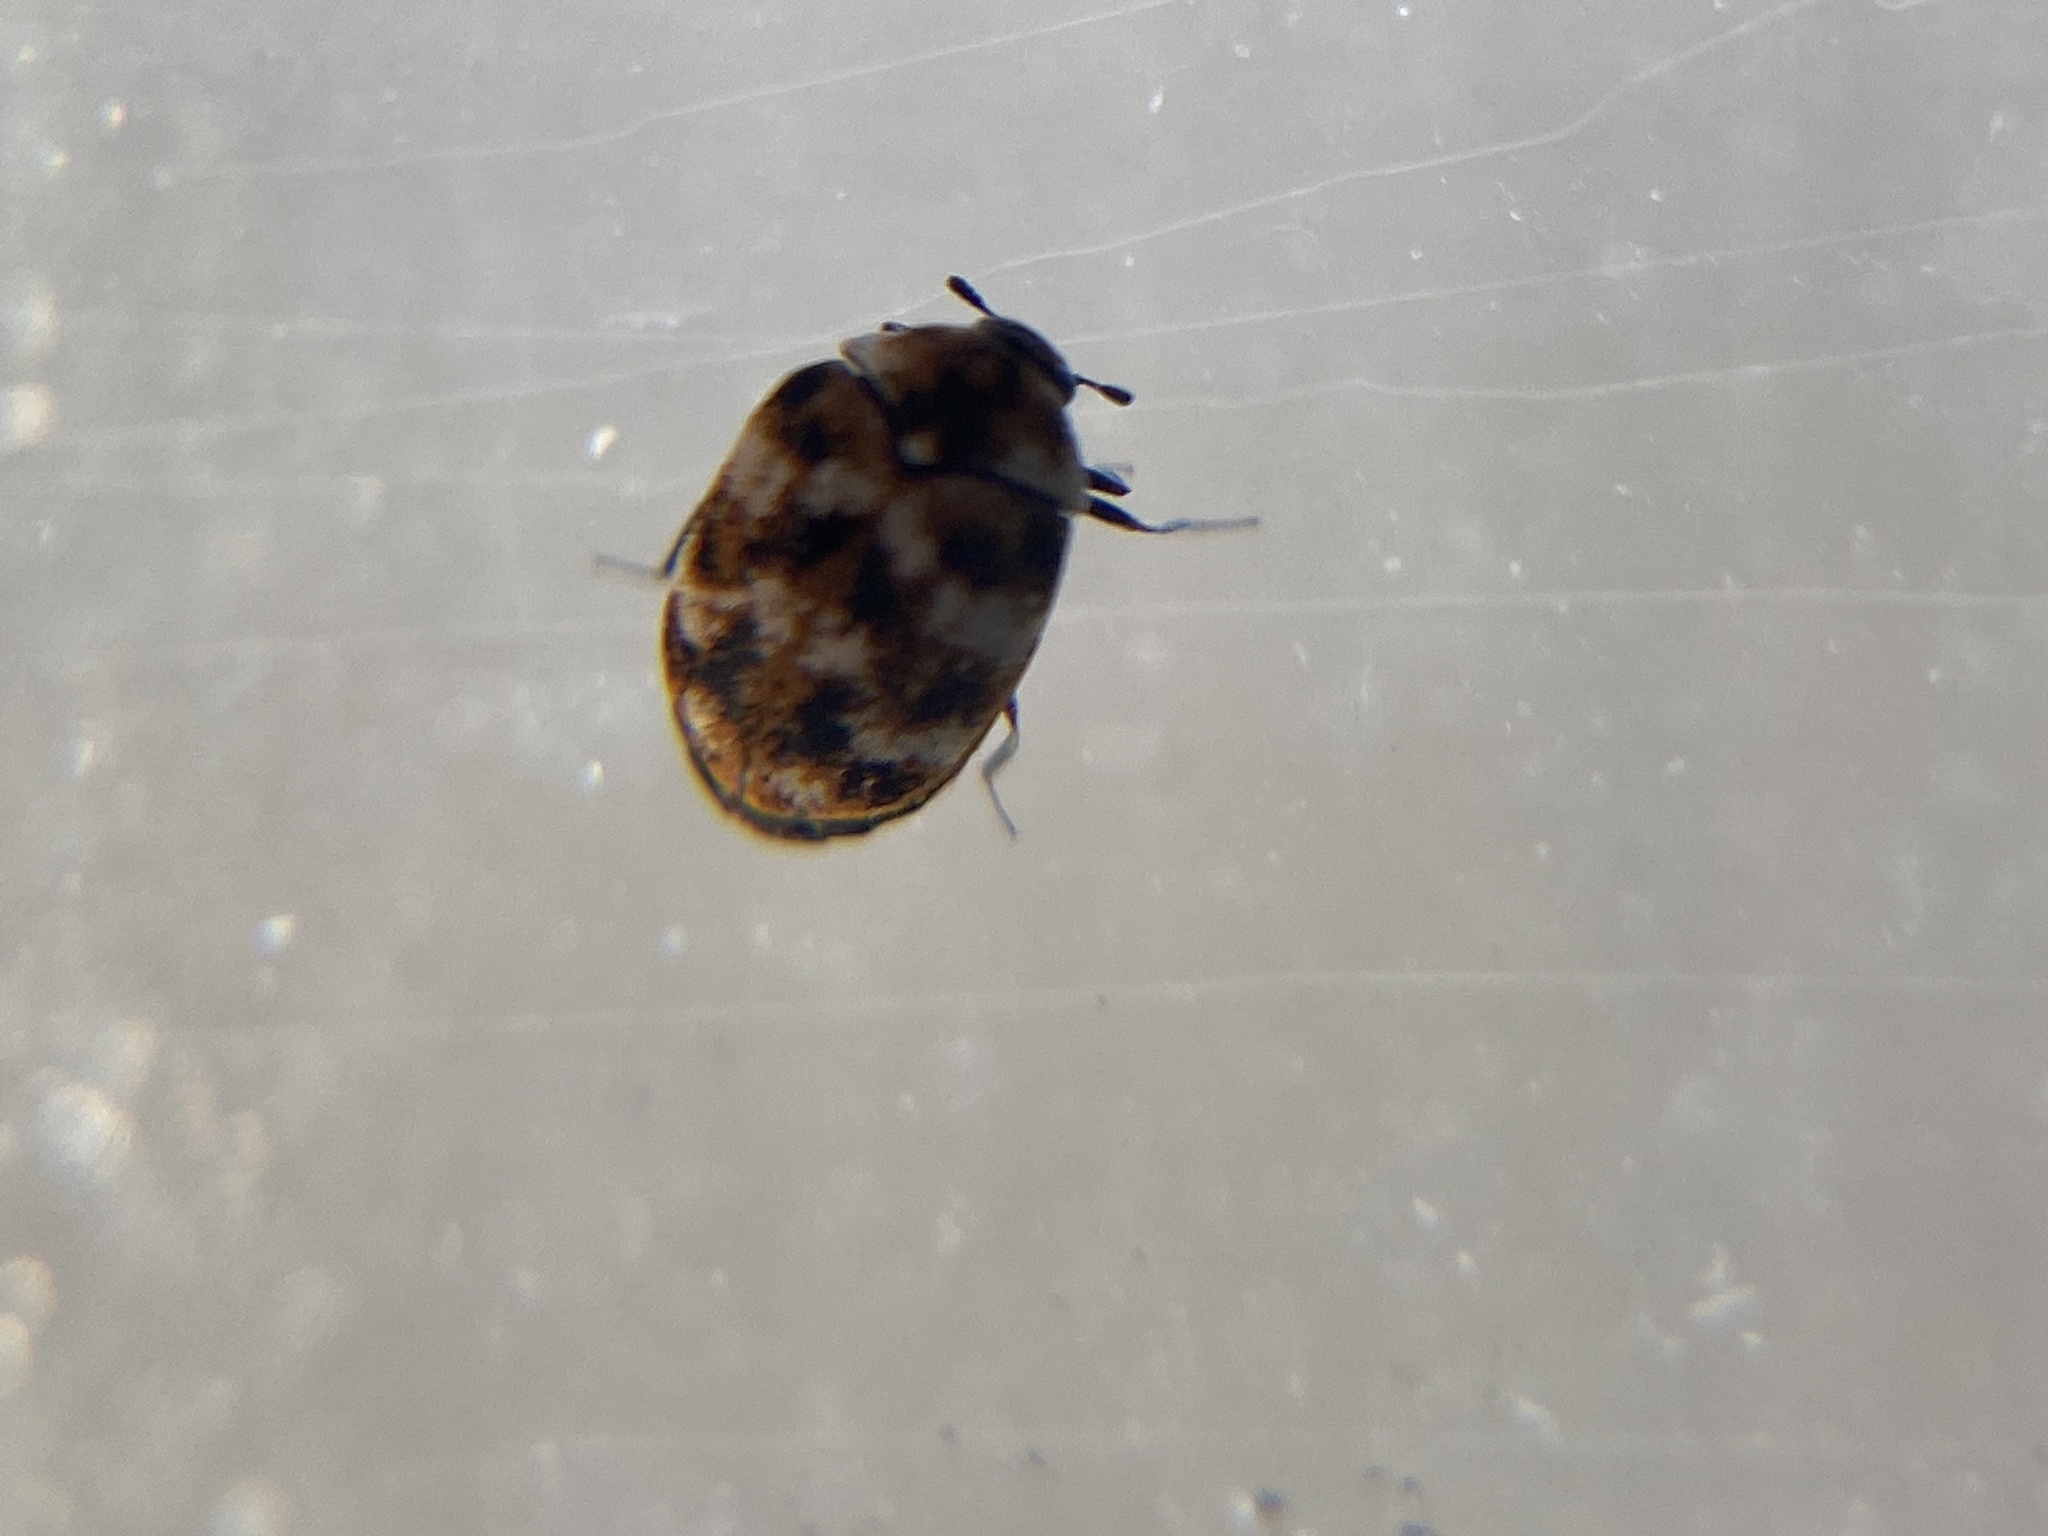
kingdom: Animalia
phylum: Arthropoda
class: Insecta
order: Coleoptera
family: Dermestidae
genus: Anthrenus
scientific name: Anthrenus verbasci
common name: Varied carpet beetle
